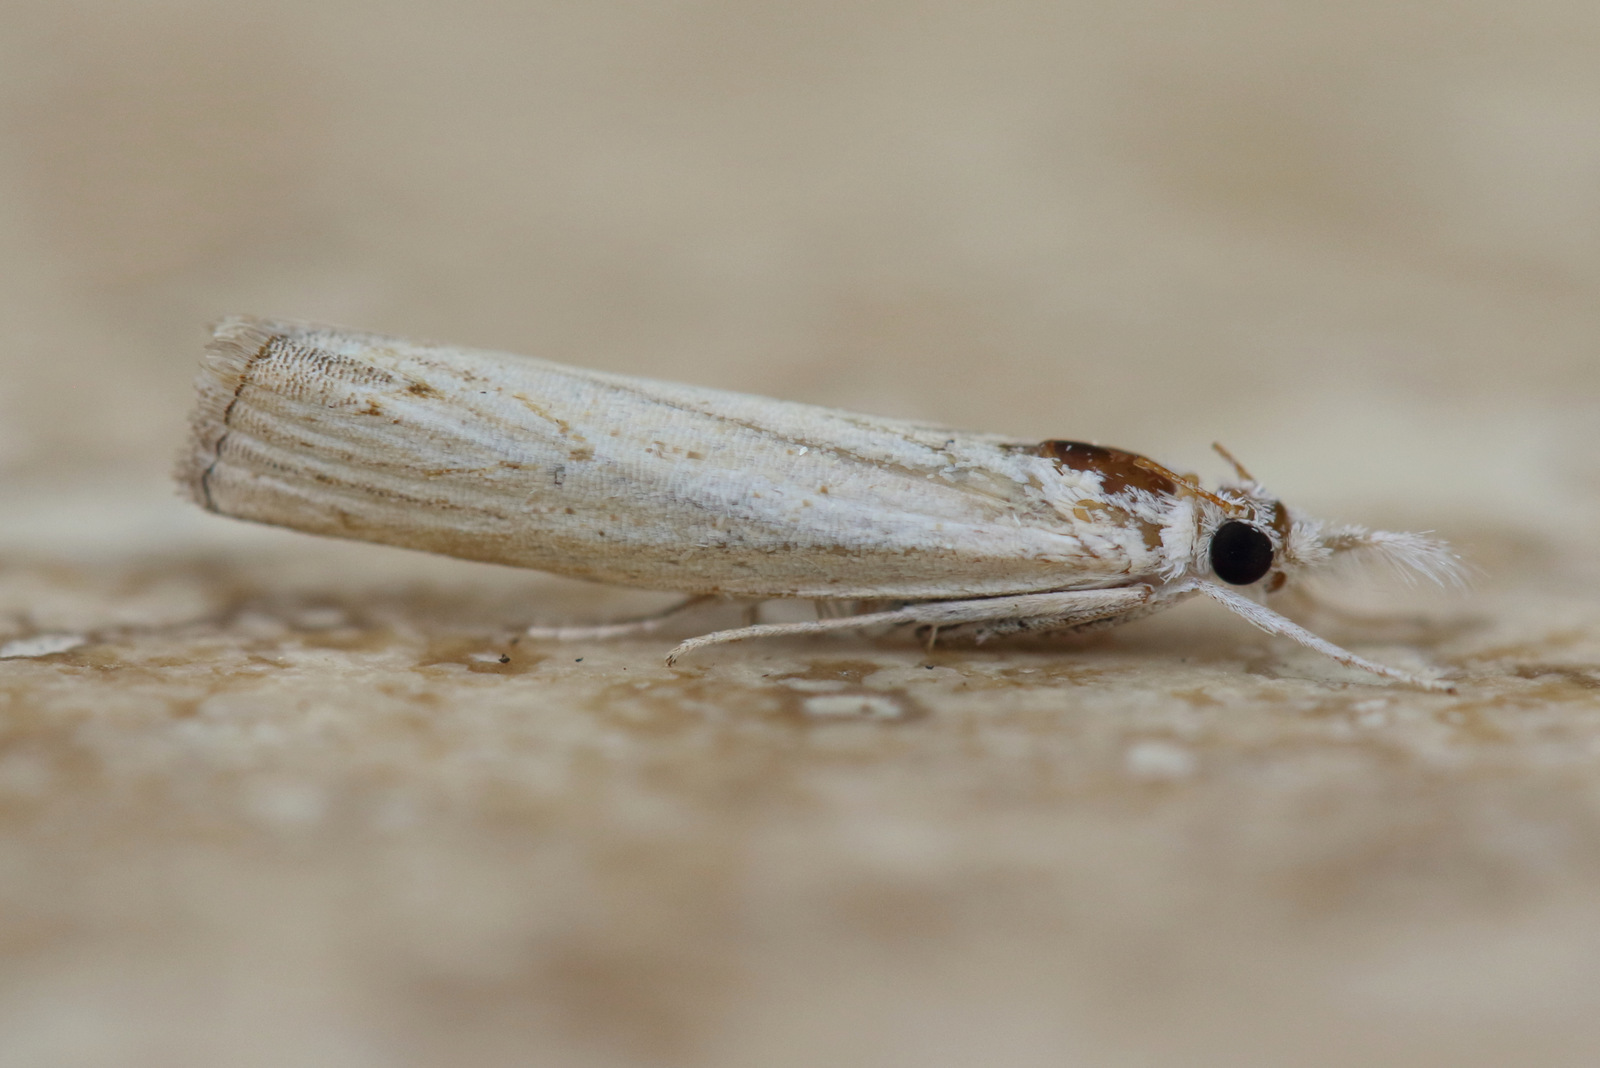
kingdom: Animalia
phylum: Arthropoda
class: Insecta
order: Lepidoptera
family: Crambidae
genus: Culladia
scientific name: Culladia cuneiferellus
